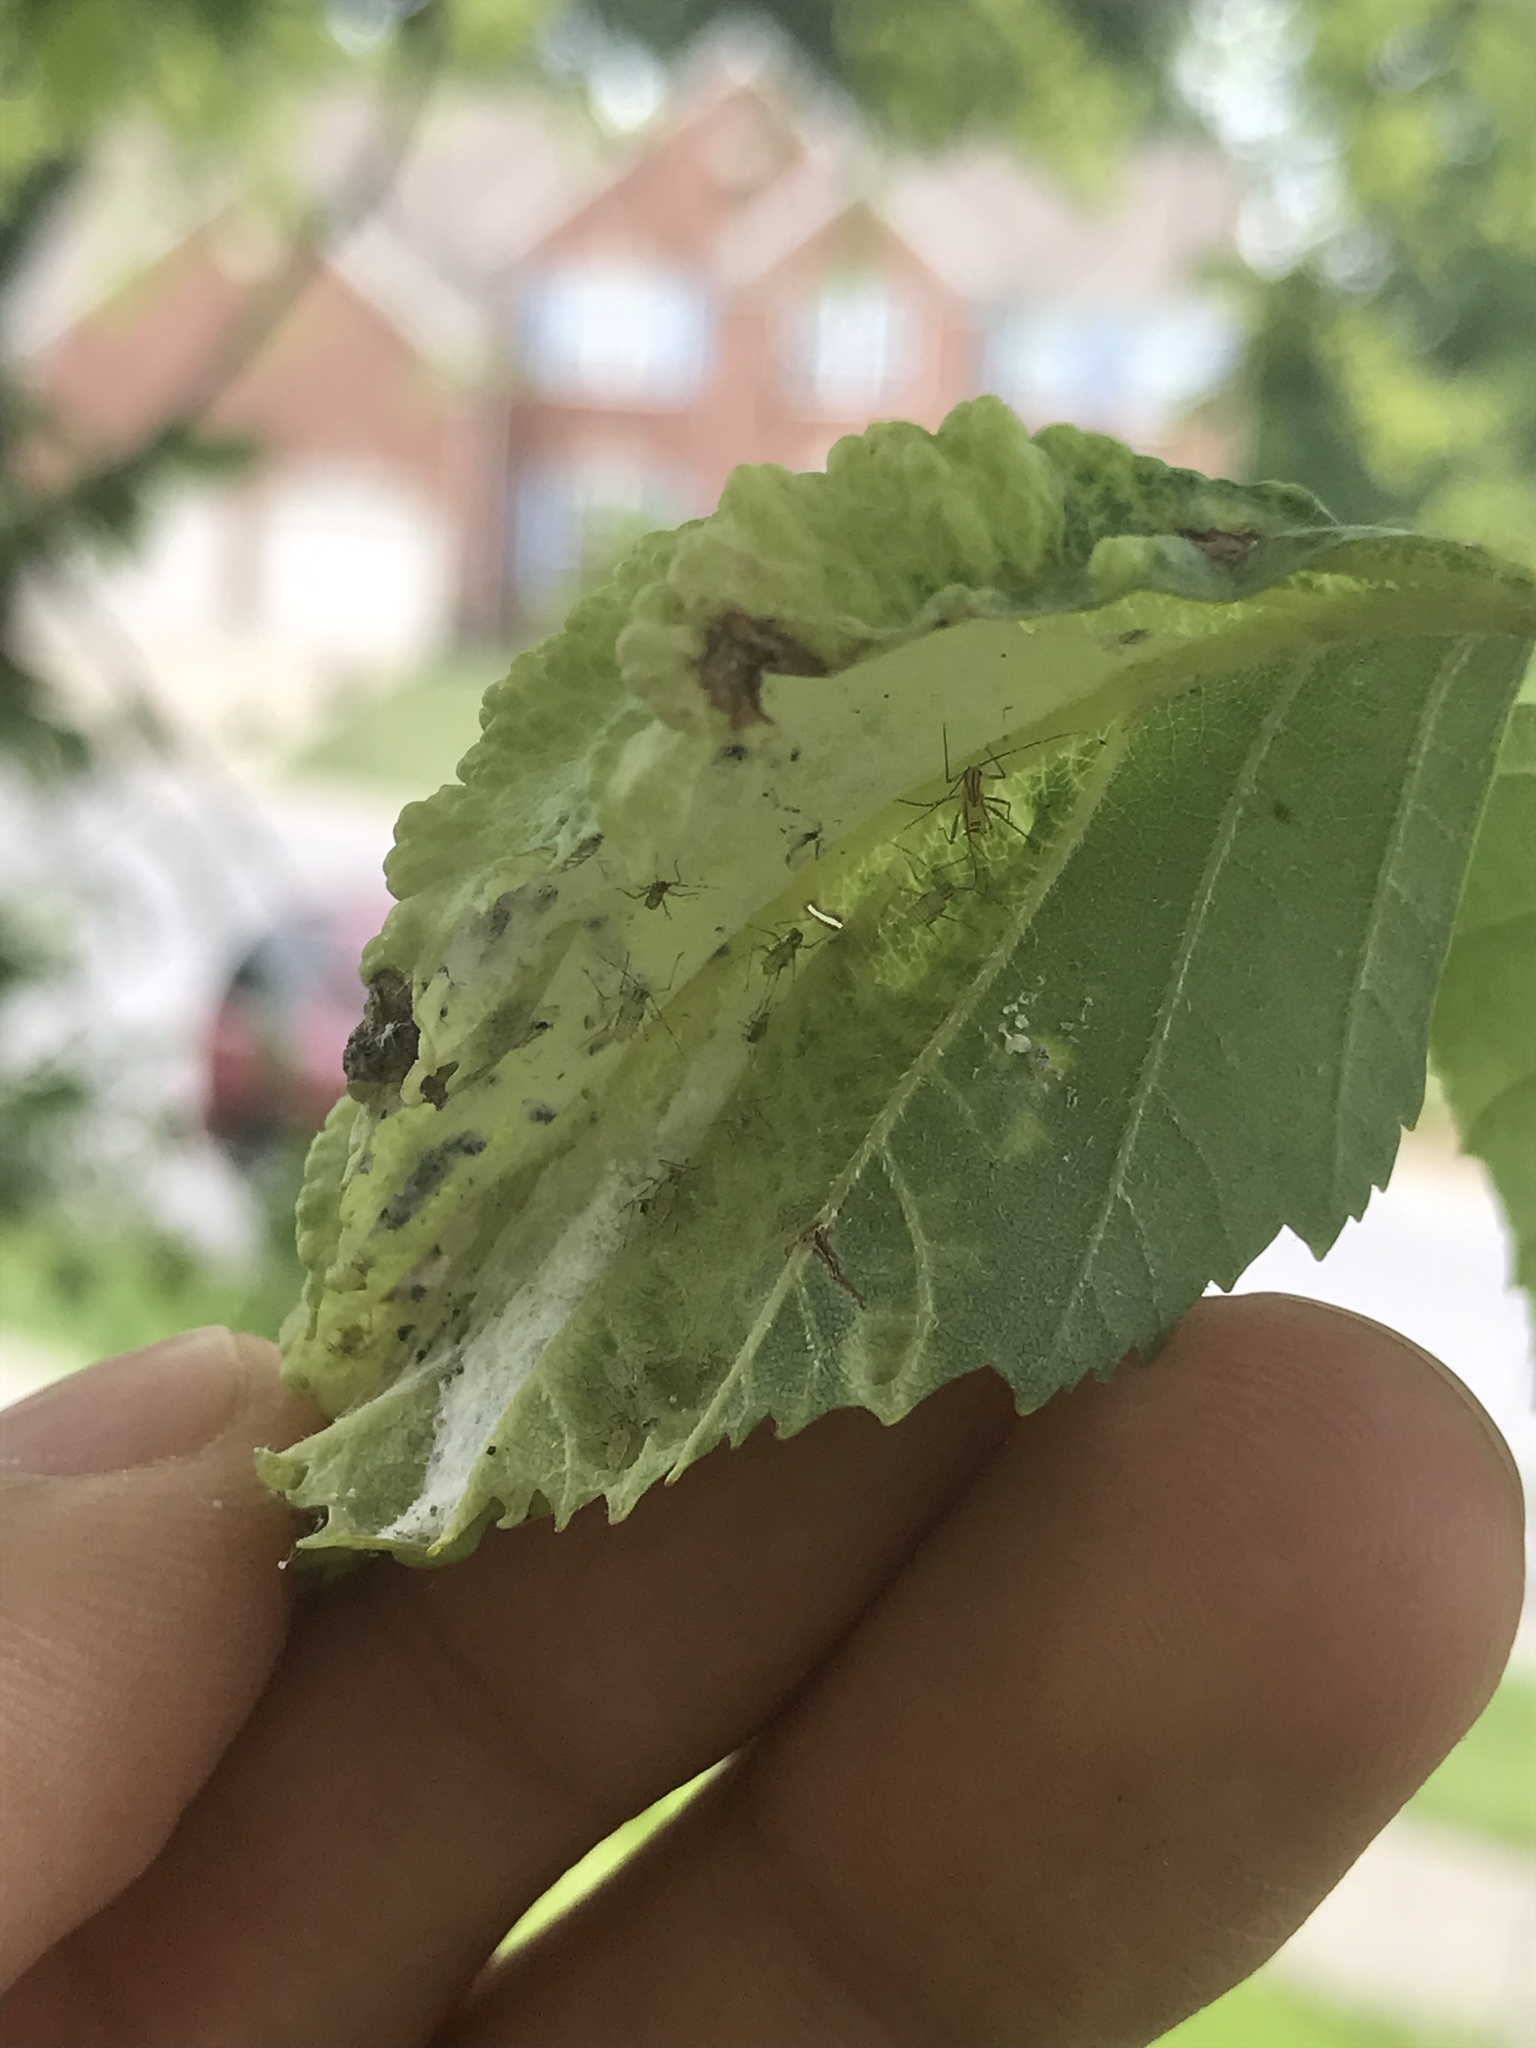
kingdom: Animalia
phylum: Arthropoda
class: Insecta
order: Hemiptera
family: Aphididae
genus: Hamamelistes
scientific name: Hamamelistes spinosus
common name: Witch hazel gall aphid
